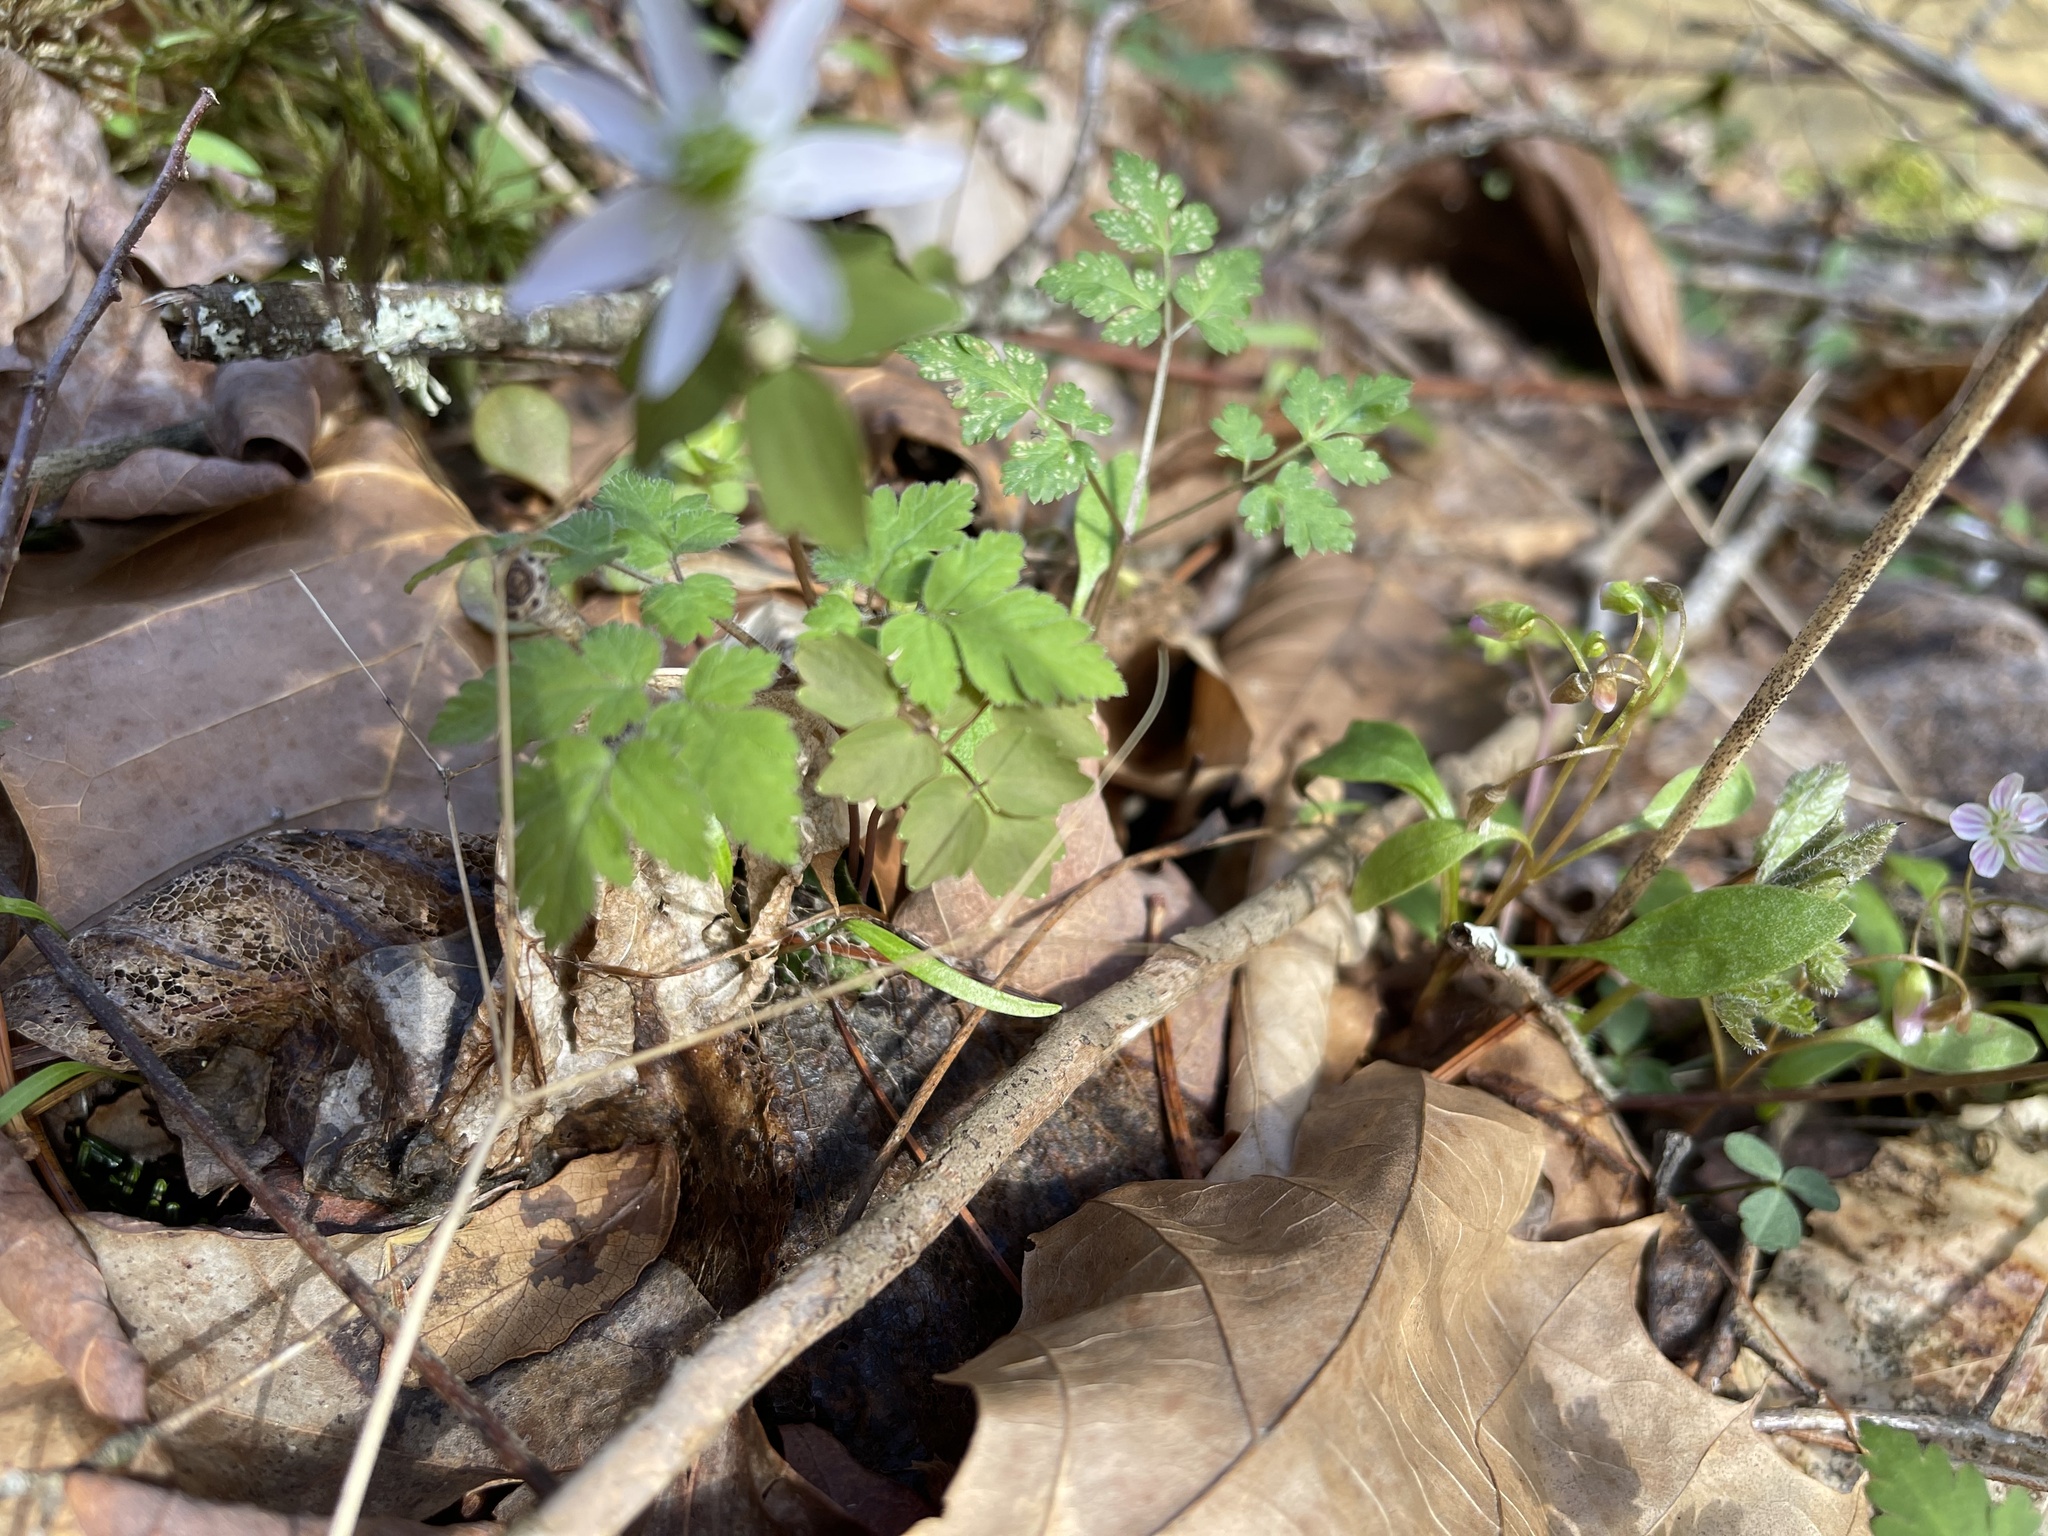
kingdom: Plantae
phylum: Tracheophyta
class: Magnoliopsida
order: Ranunculales
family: Ranunculaceae
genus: Thalictrum
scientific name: Thalictrum thalictroides
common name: Rue-anemone
